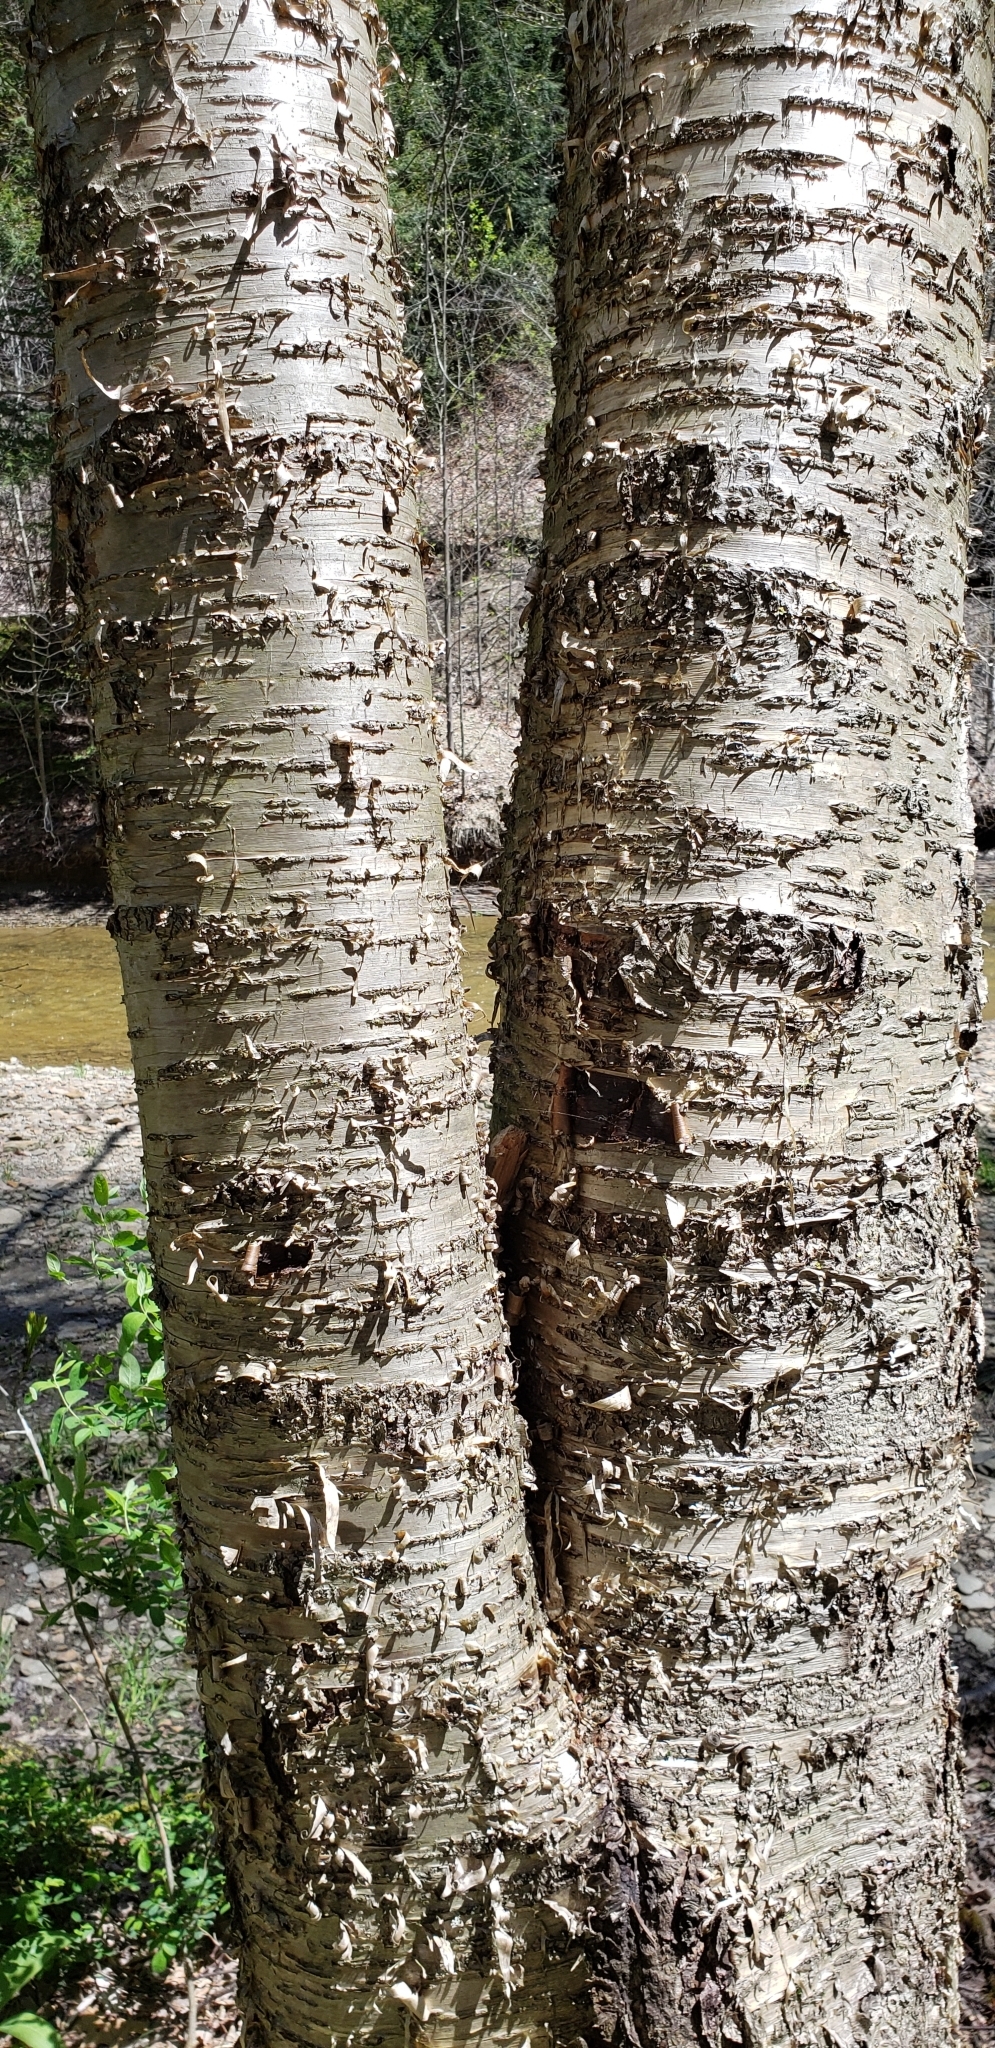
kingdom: Plantae
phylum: Tracheophyta
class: Magnoliopsida
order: Fagales
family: Betulaceae
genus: Betula
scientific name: Betula alleghaniensis
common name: Yellow birch
